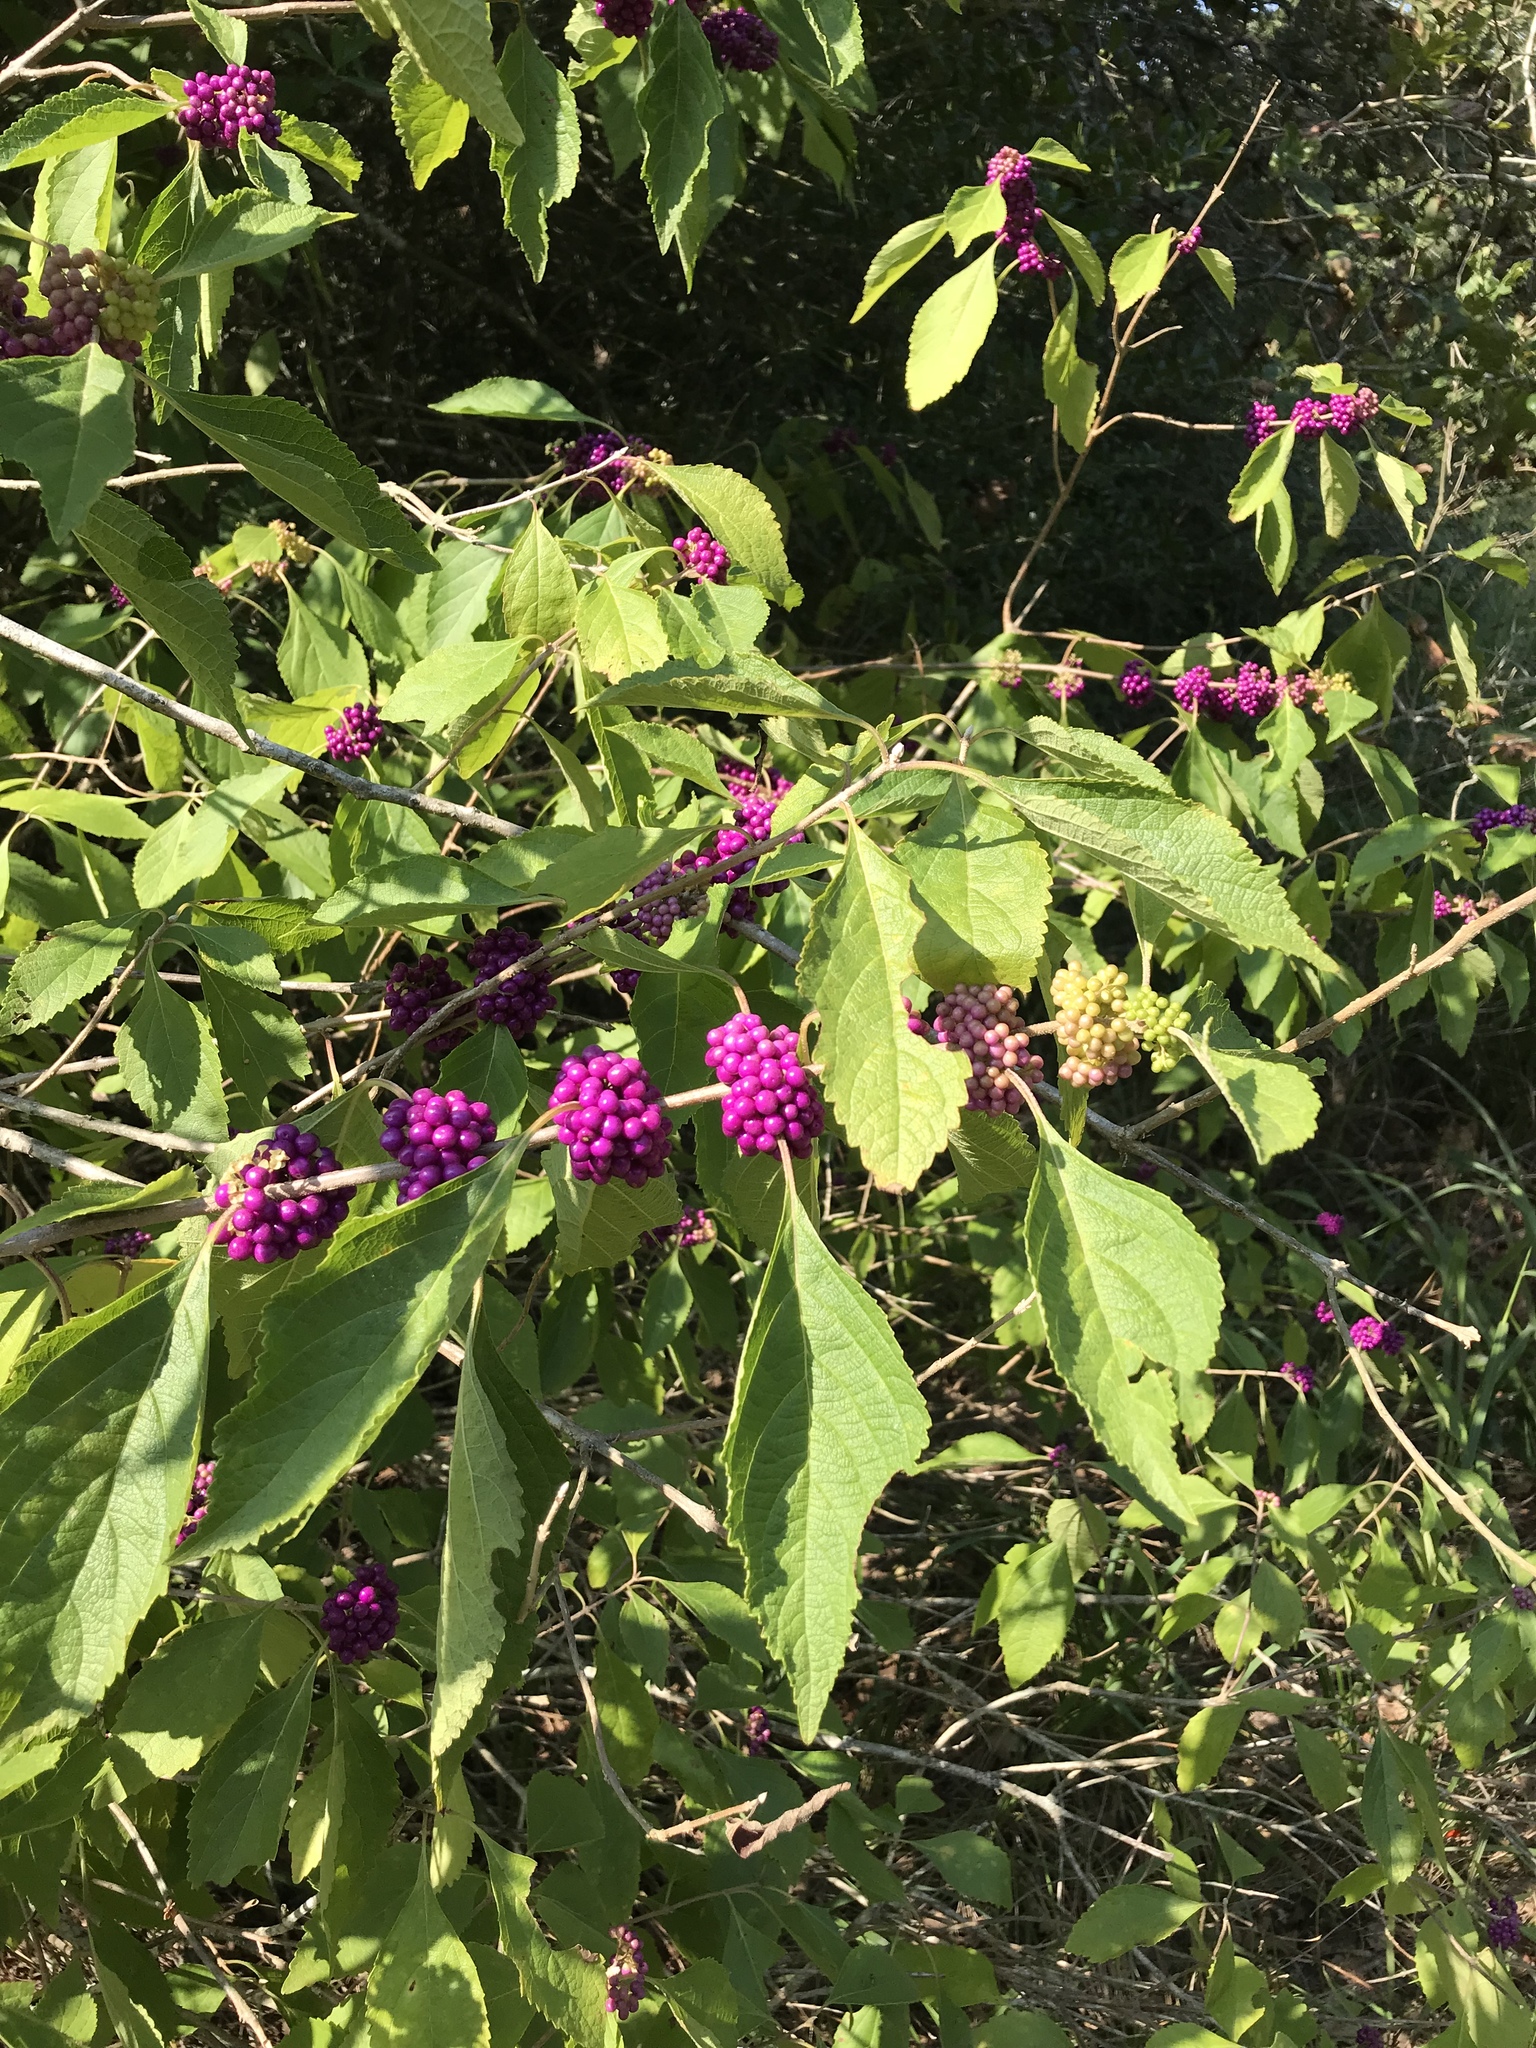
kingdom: Plantae
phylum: Tracheophyta
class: Magnoliopsida
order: Lamiales
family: Lamiaceae
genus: Callicarpa
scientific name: Callicarpa americana
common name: American beautyberry
